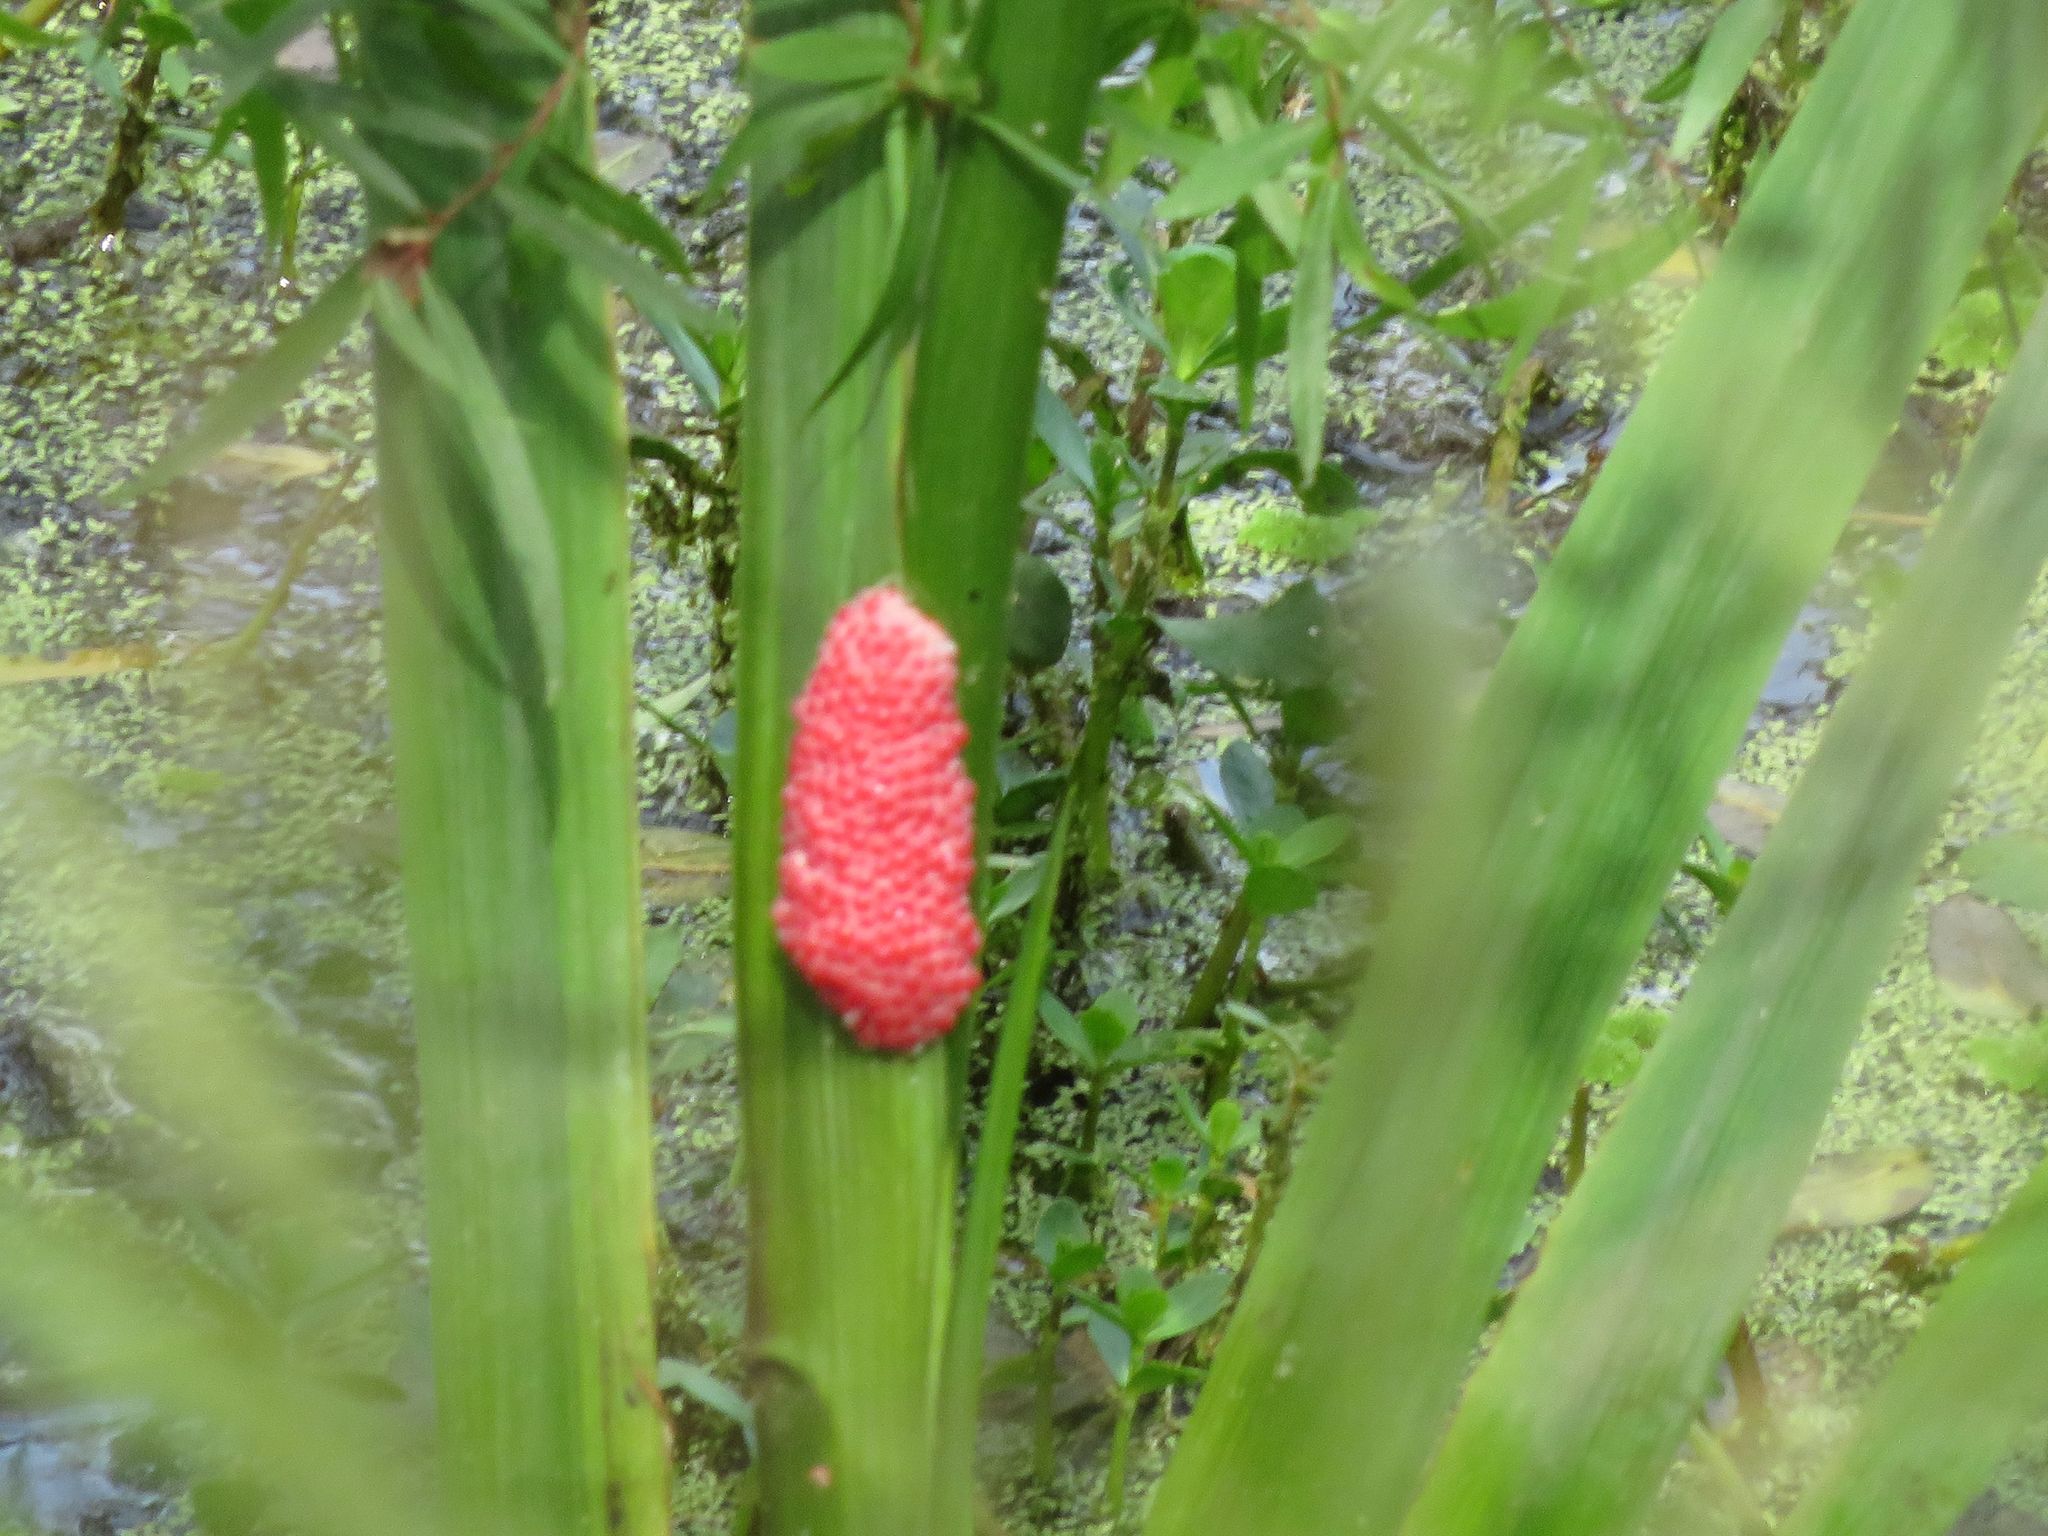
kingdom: Animalia
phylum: Mollusca
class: Gastropoda
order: Architaenioglossa
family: Ampullariidae
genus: Pomacea
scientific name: Pomacea canaliculata
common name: Channeled applesnail
